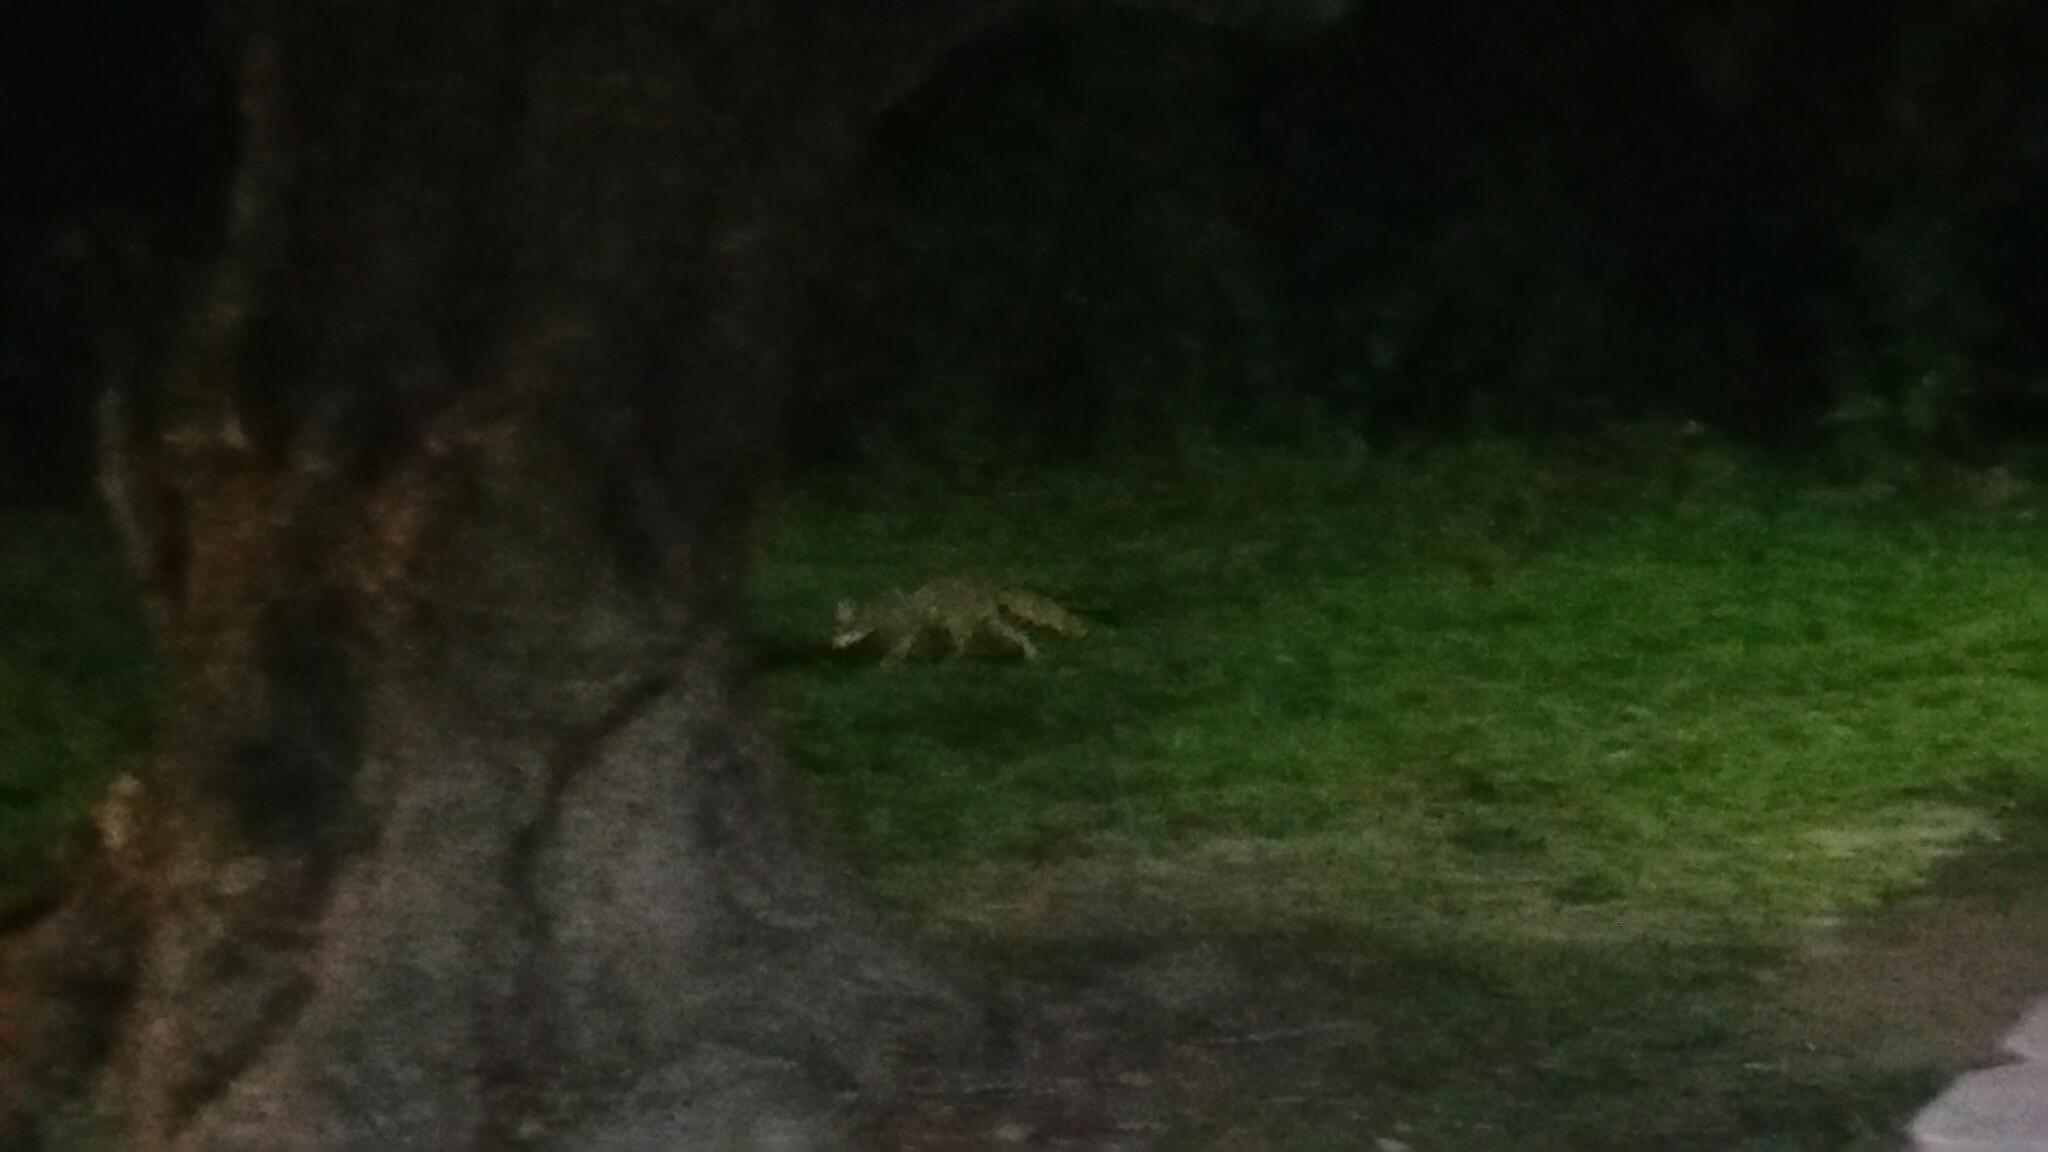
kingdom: Animalia
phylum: Chordata
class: Mammalia
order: Carnivora
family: Canidae
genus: Urocyon
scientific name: Urocyon cinereoargenteus
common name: Gray fox
